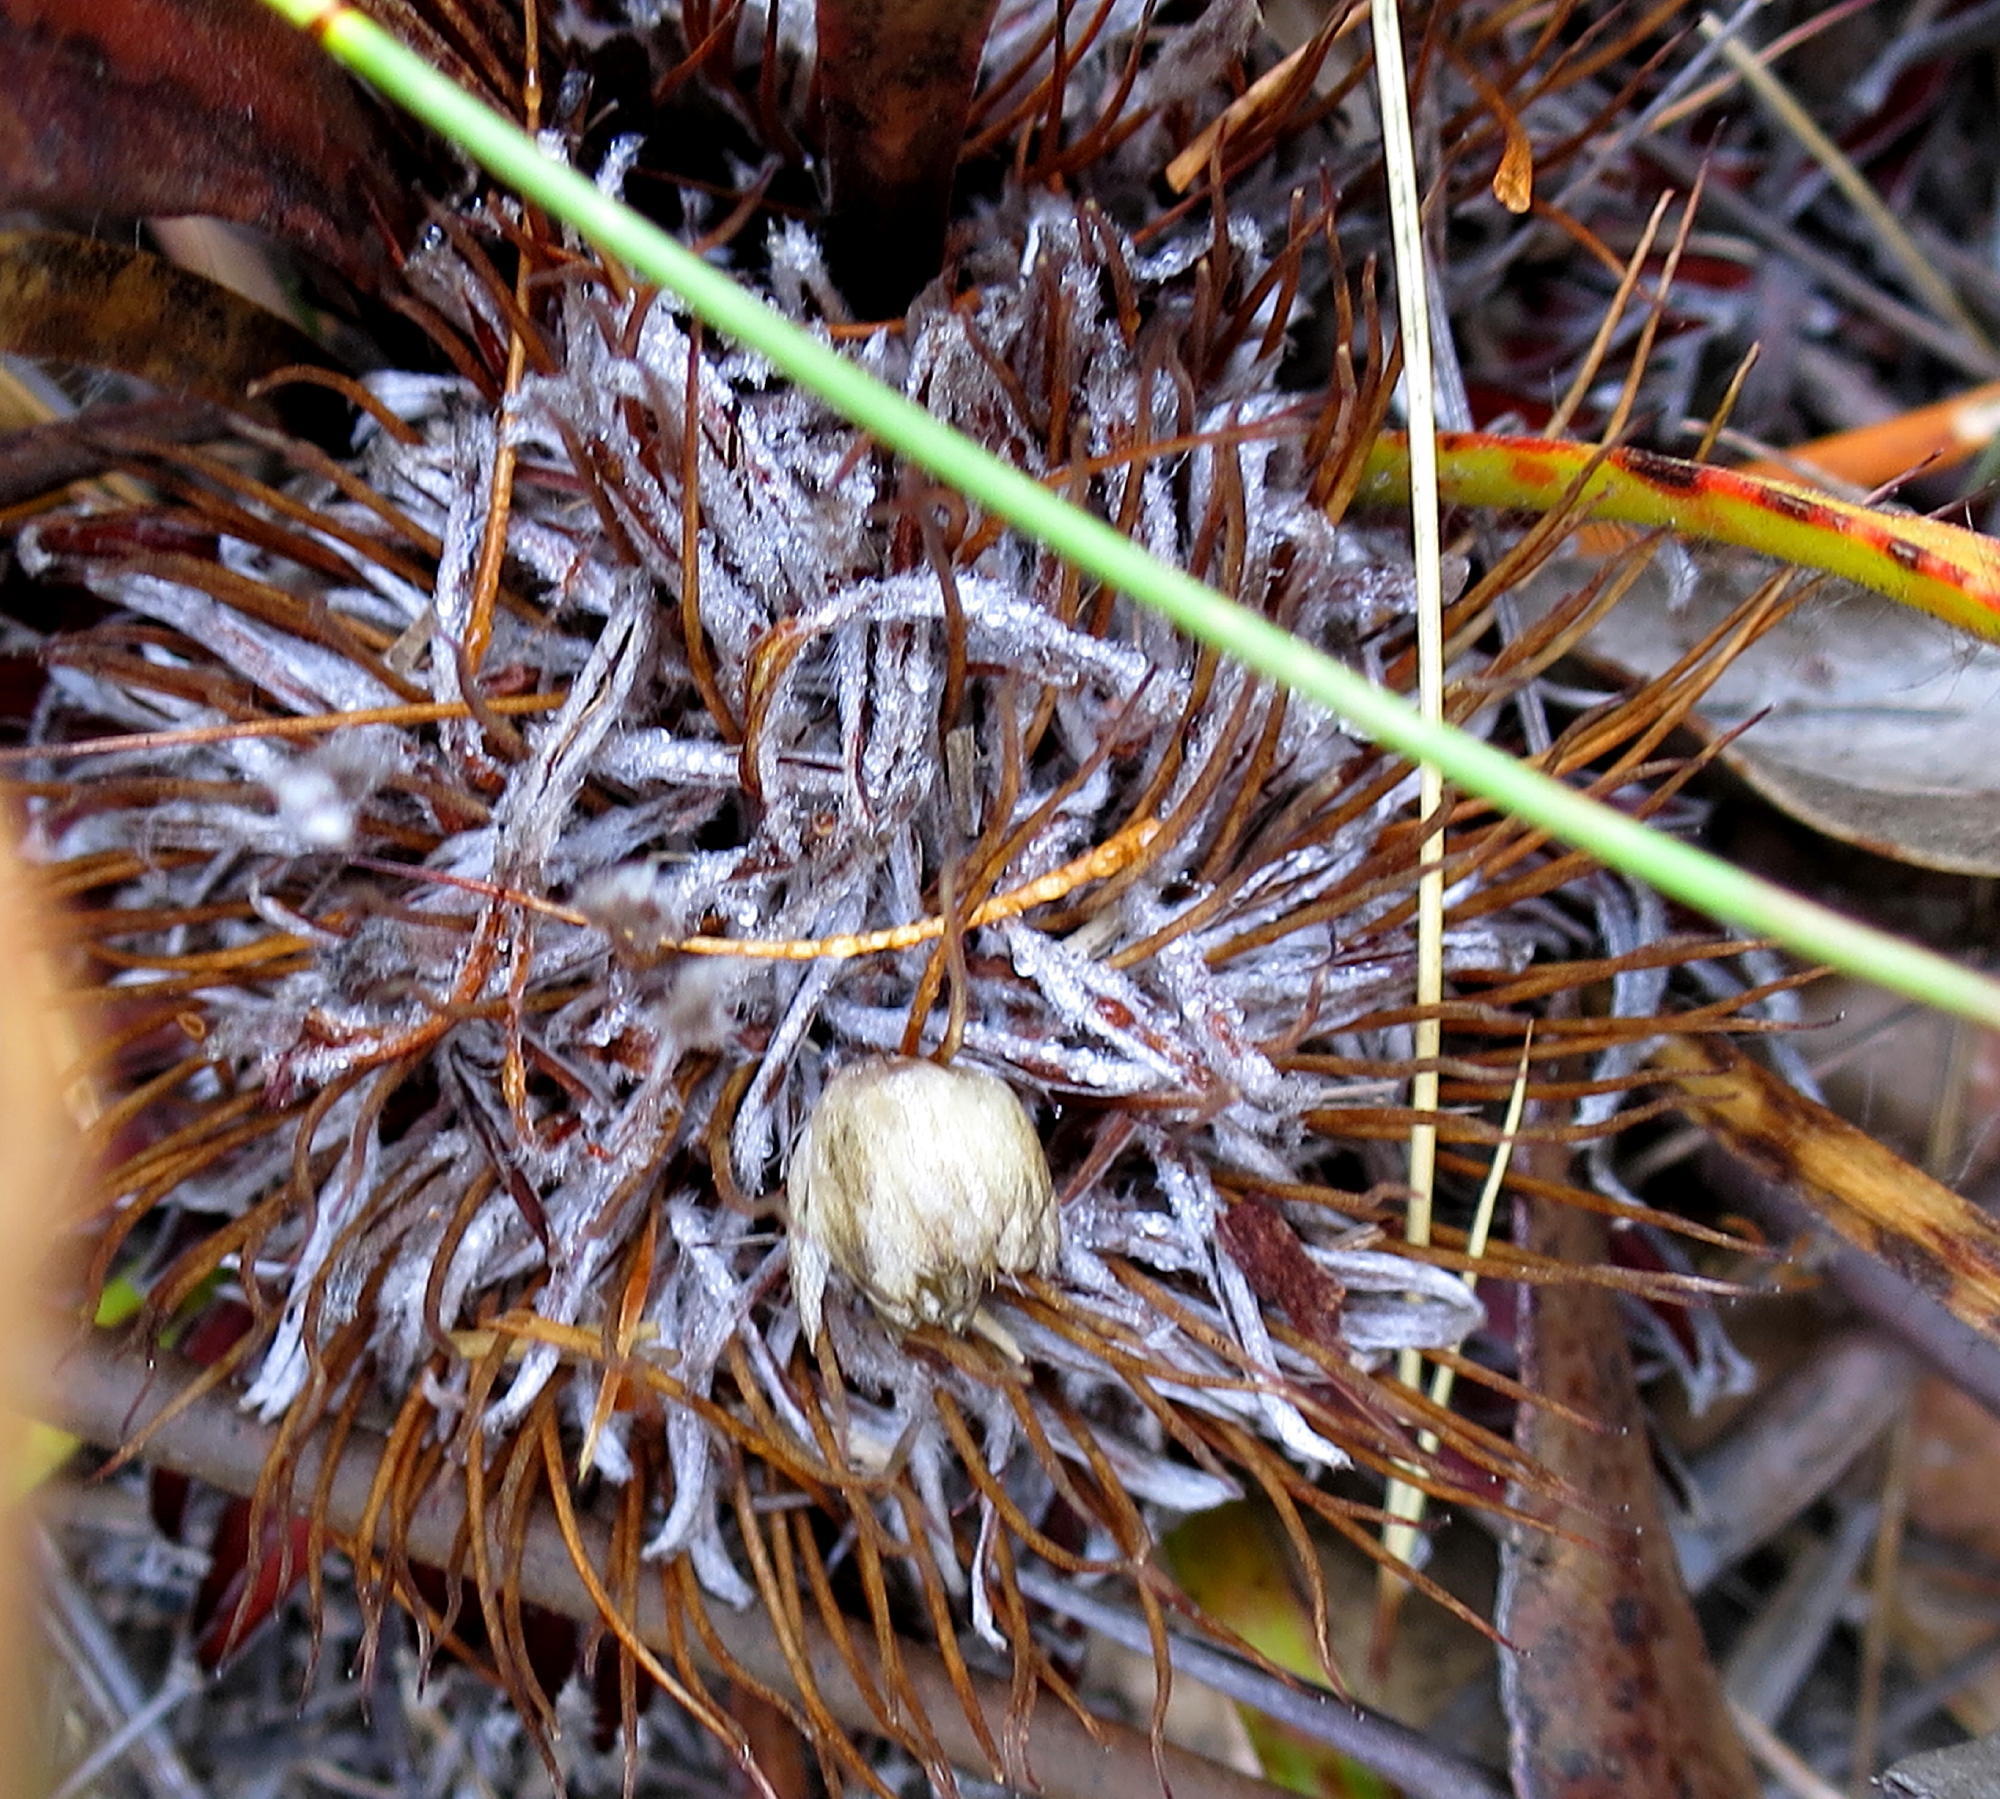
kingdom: Plantae
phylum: Tracheophyta
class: Magnoliopsida
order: Proteales
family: Proteaceae
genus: Protea
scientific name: Protea scolopendriifolia
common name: Harts-tongue-fern sugarbush
